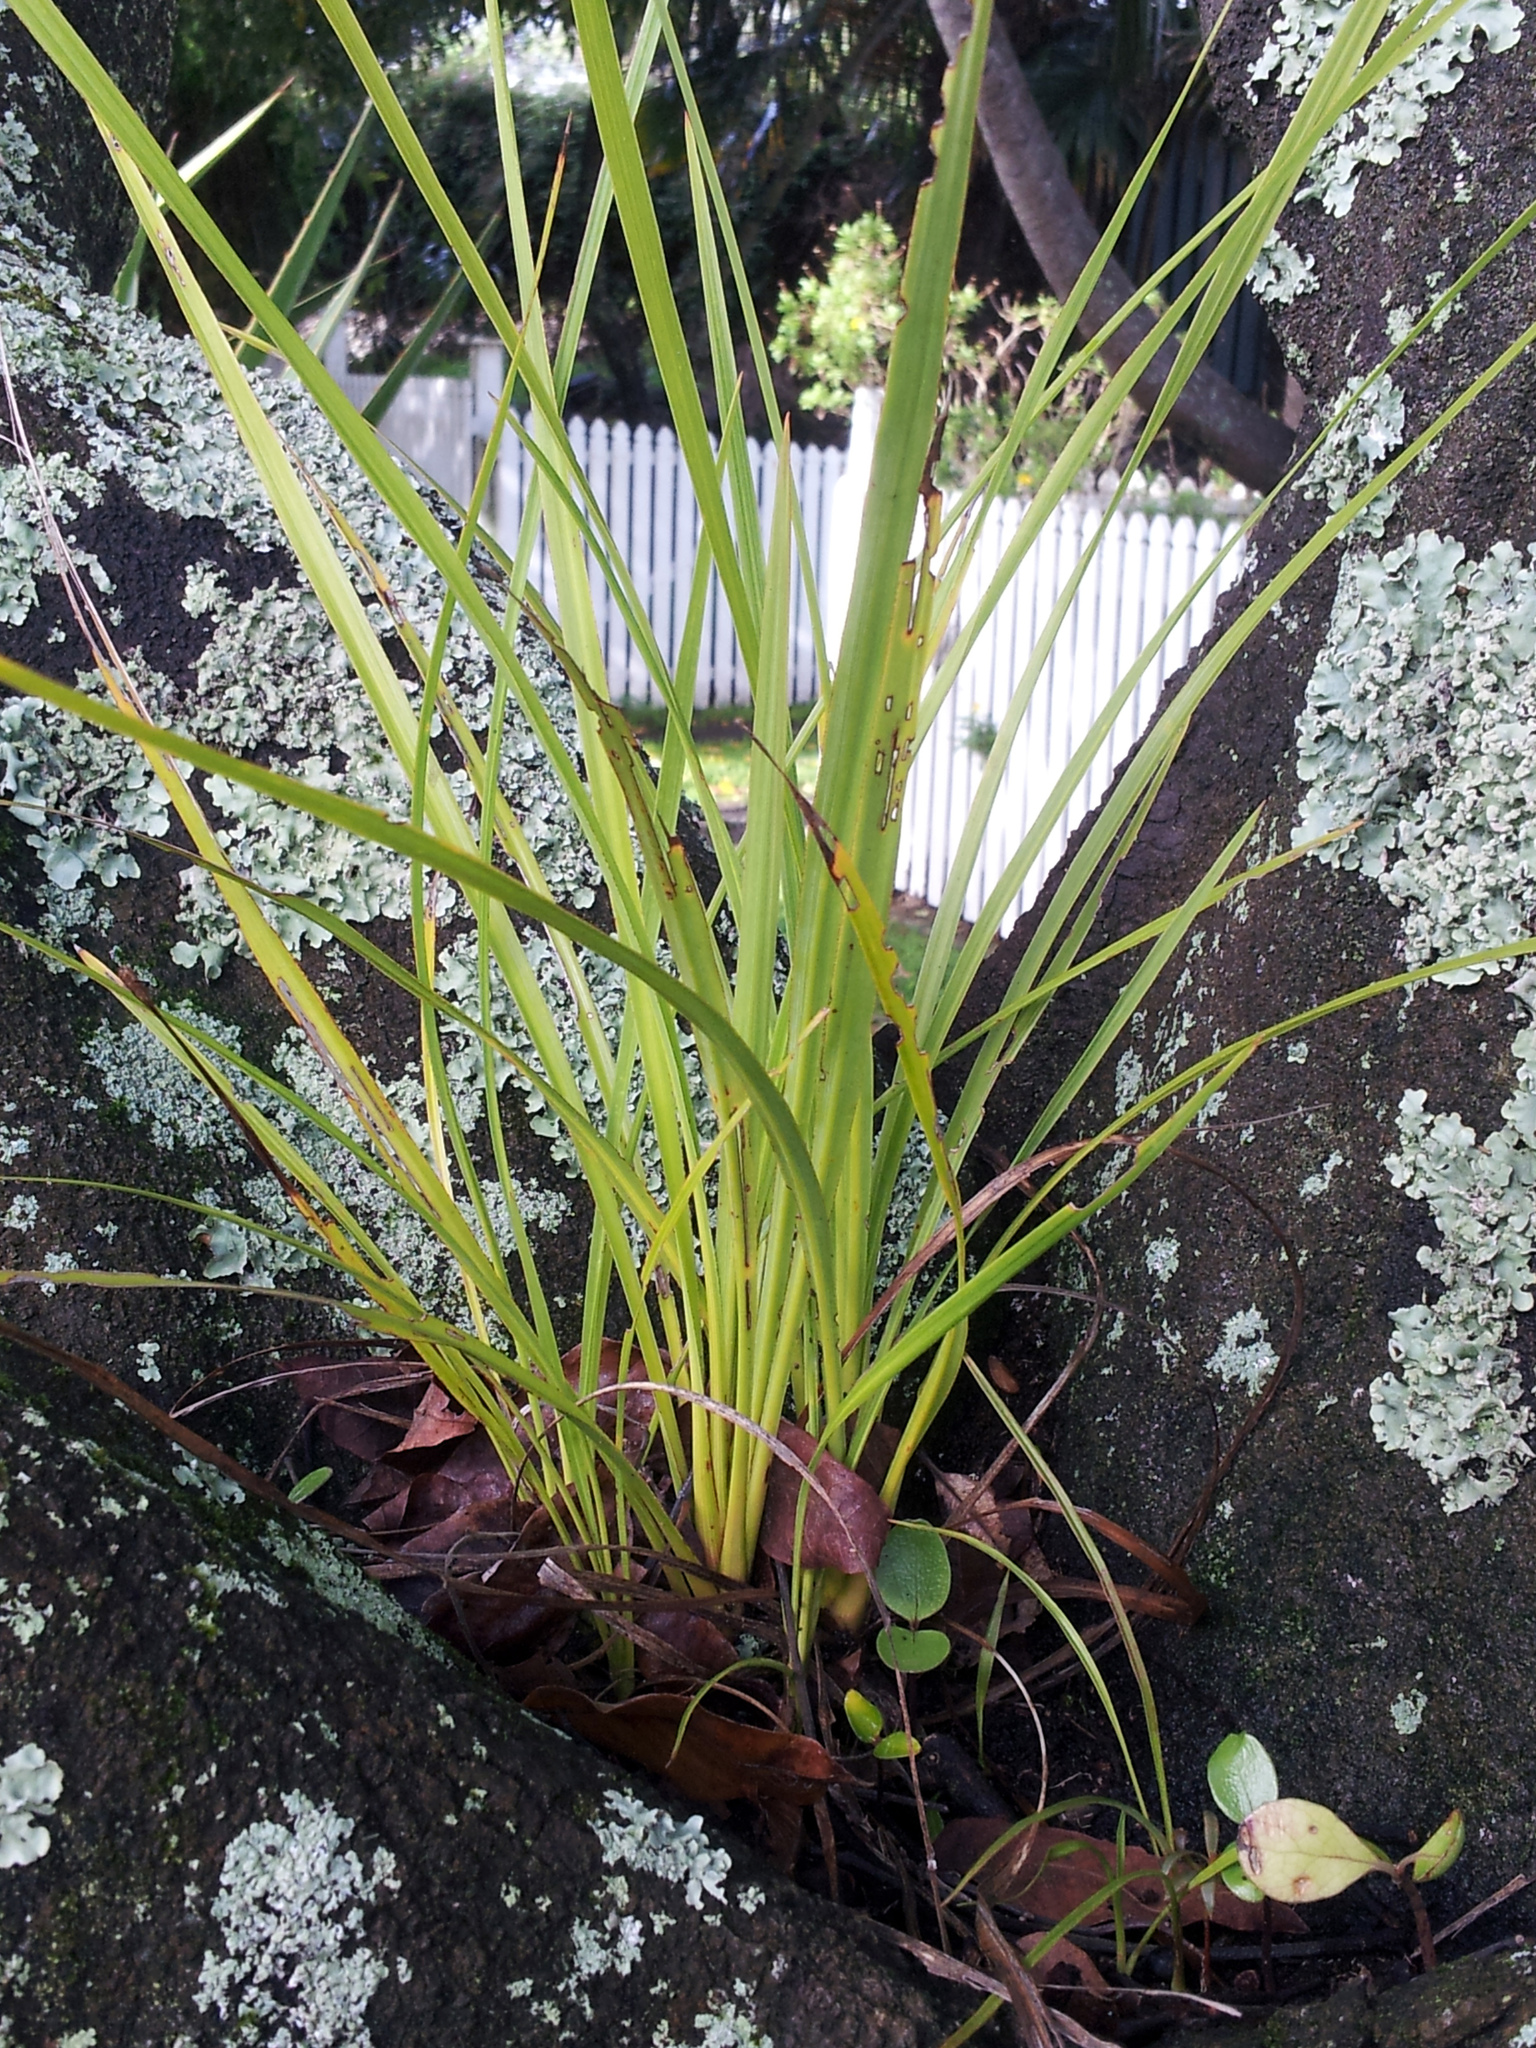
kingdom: Plantae
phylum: Tracheophyta
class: Liliopsida
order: Asparagales
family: Asparagaceae
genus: Cordyline
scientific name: Cordyline australis
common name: Cabbage-palm
